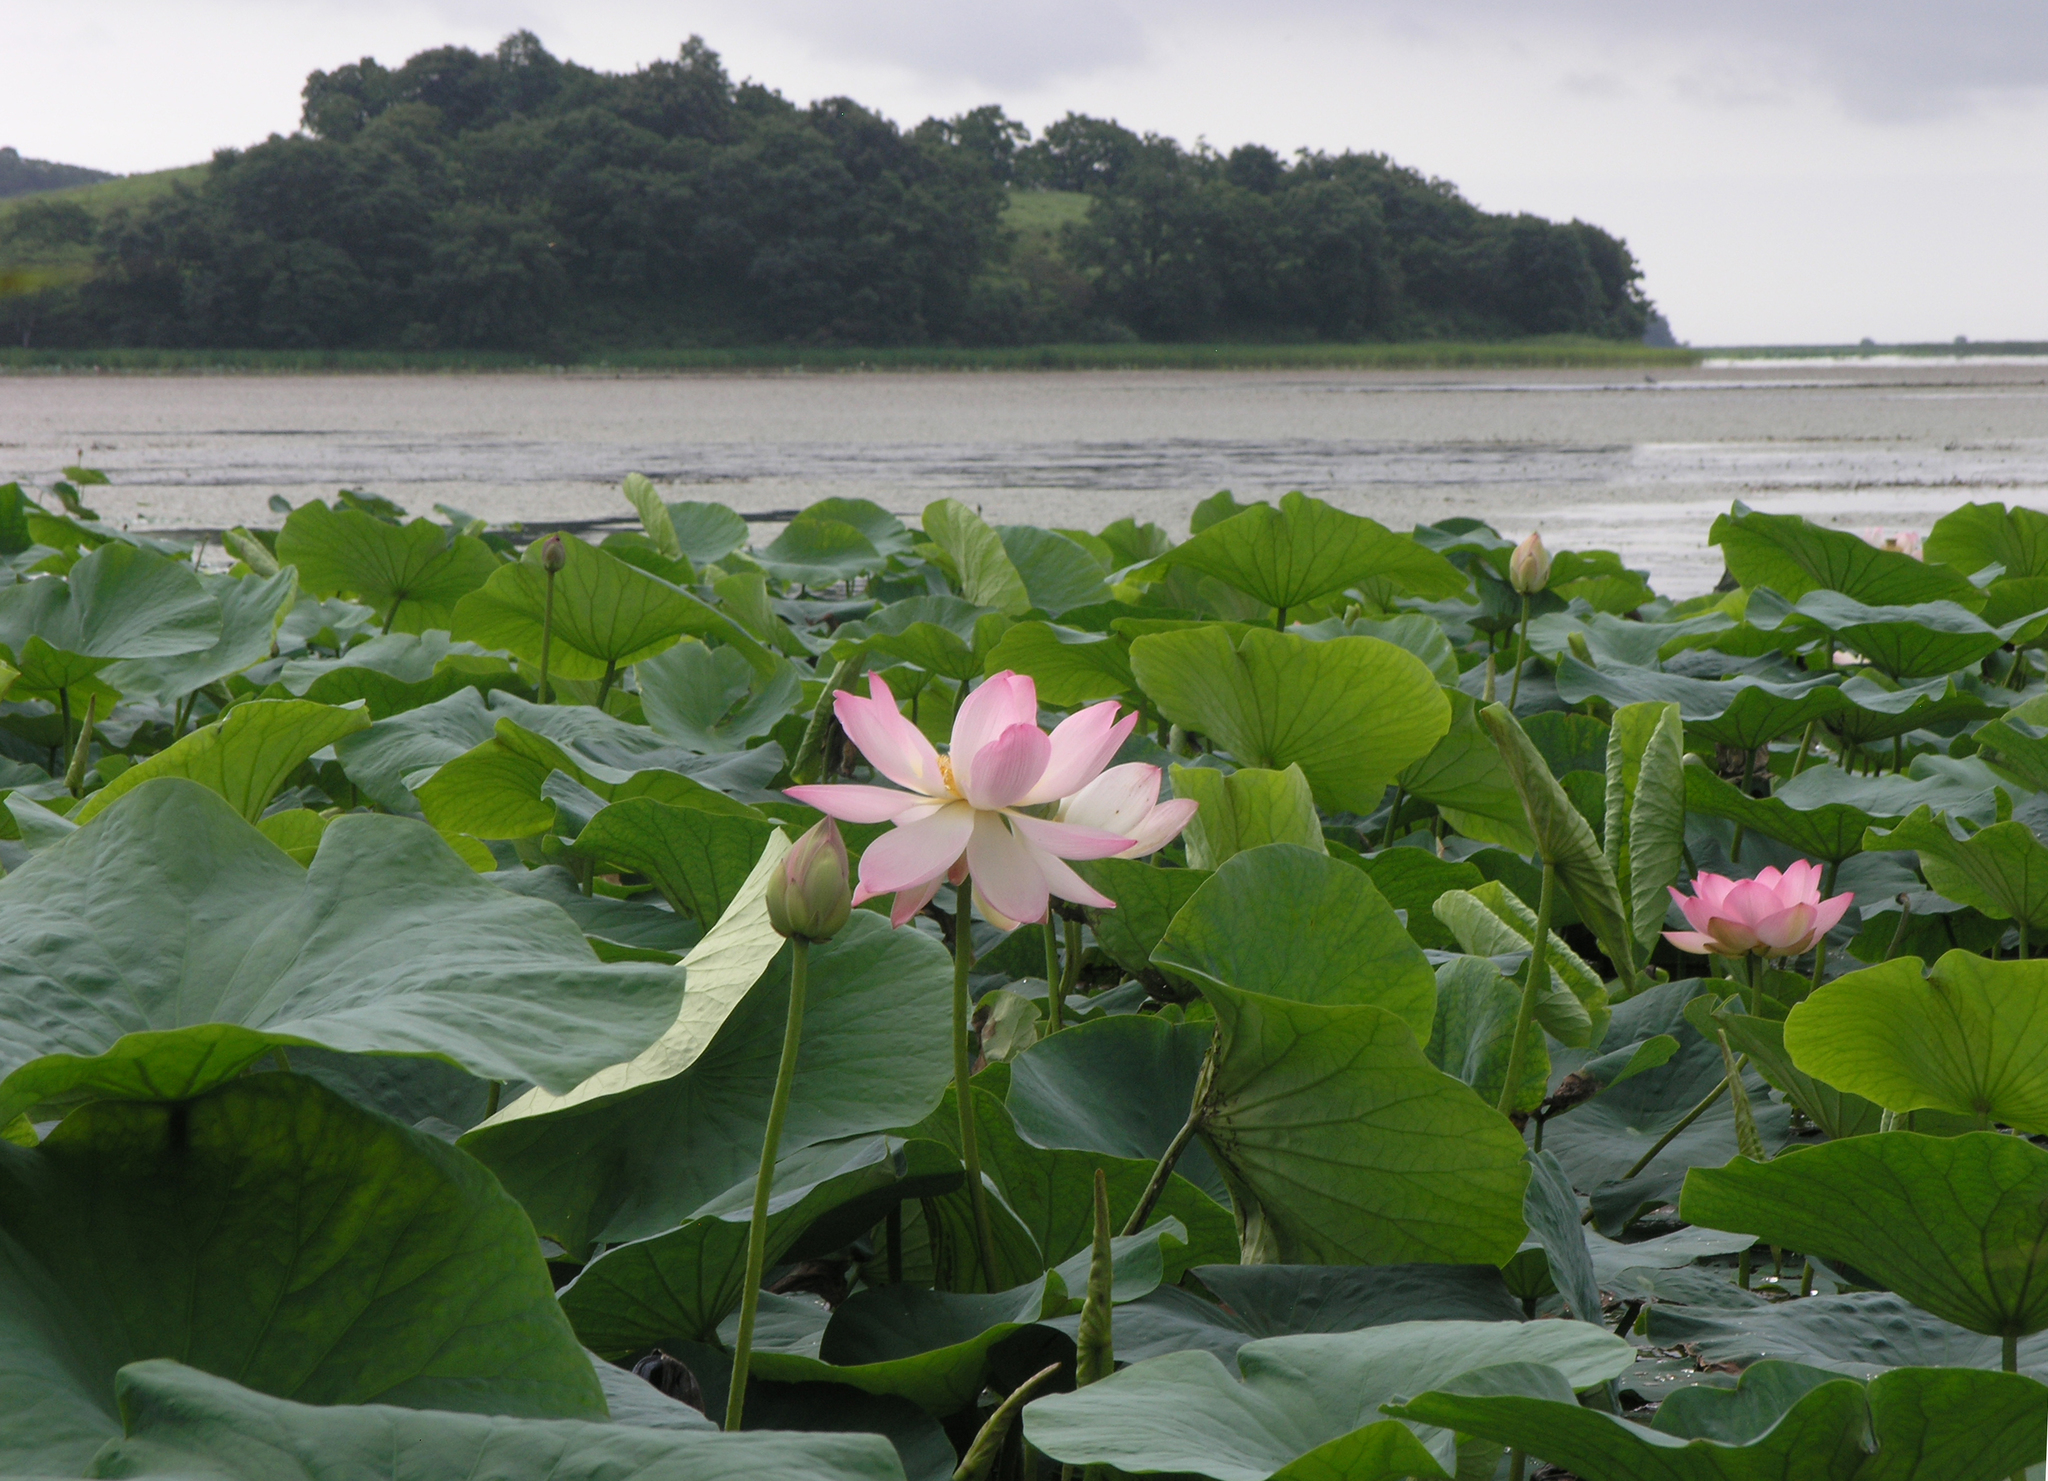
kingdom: Plantae
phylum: Tracheophyta
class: Magnoliopsida
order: Proteales
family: Nelumbonaceae
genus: Nelumbo
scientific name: Nelumbo nucifera
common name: Sacred lotus
